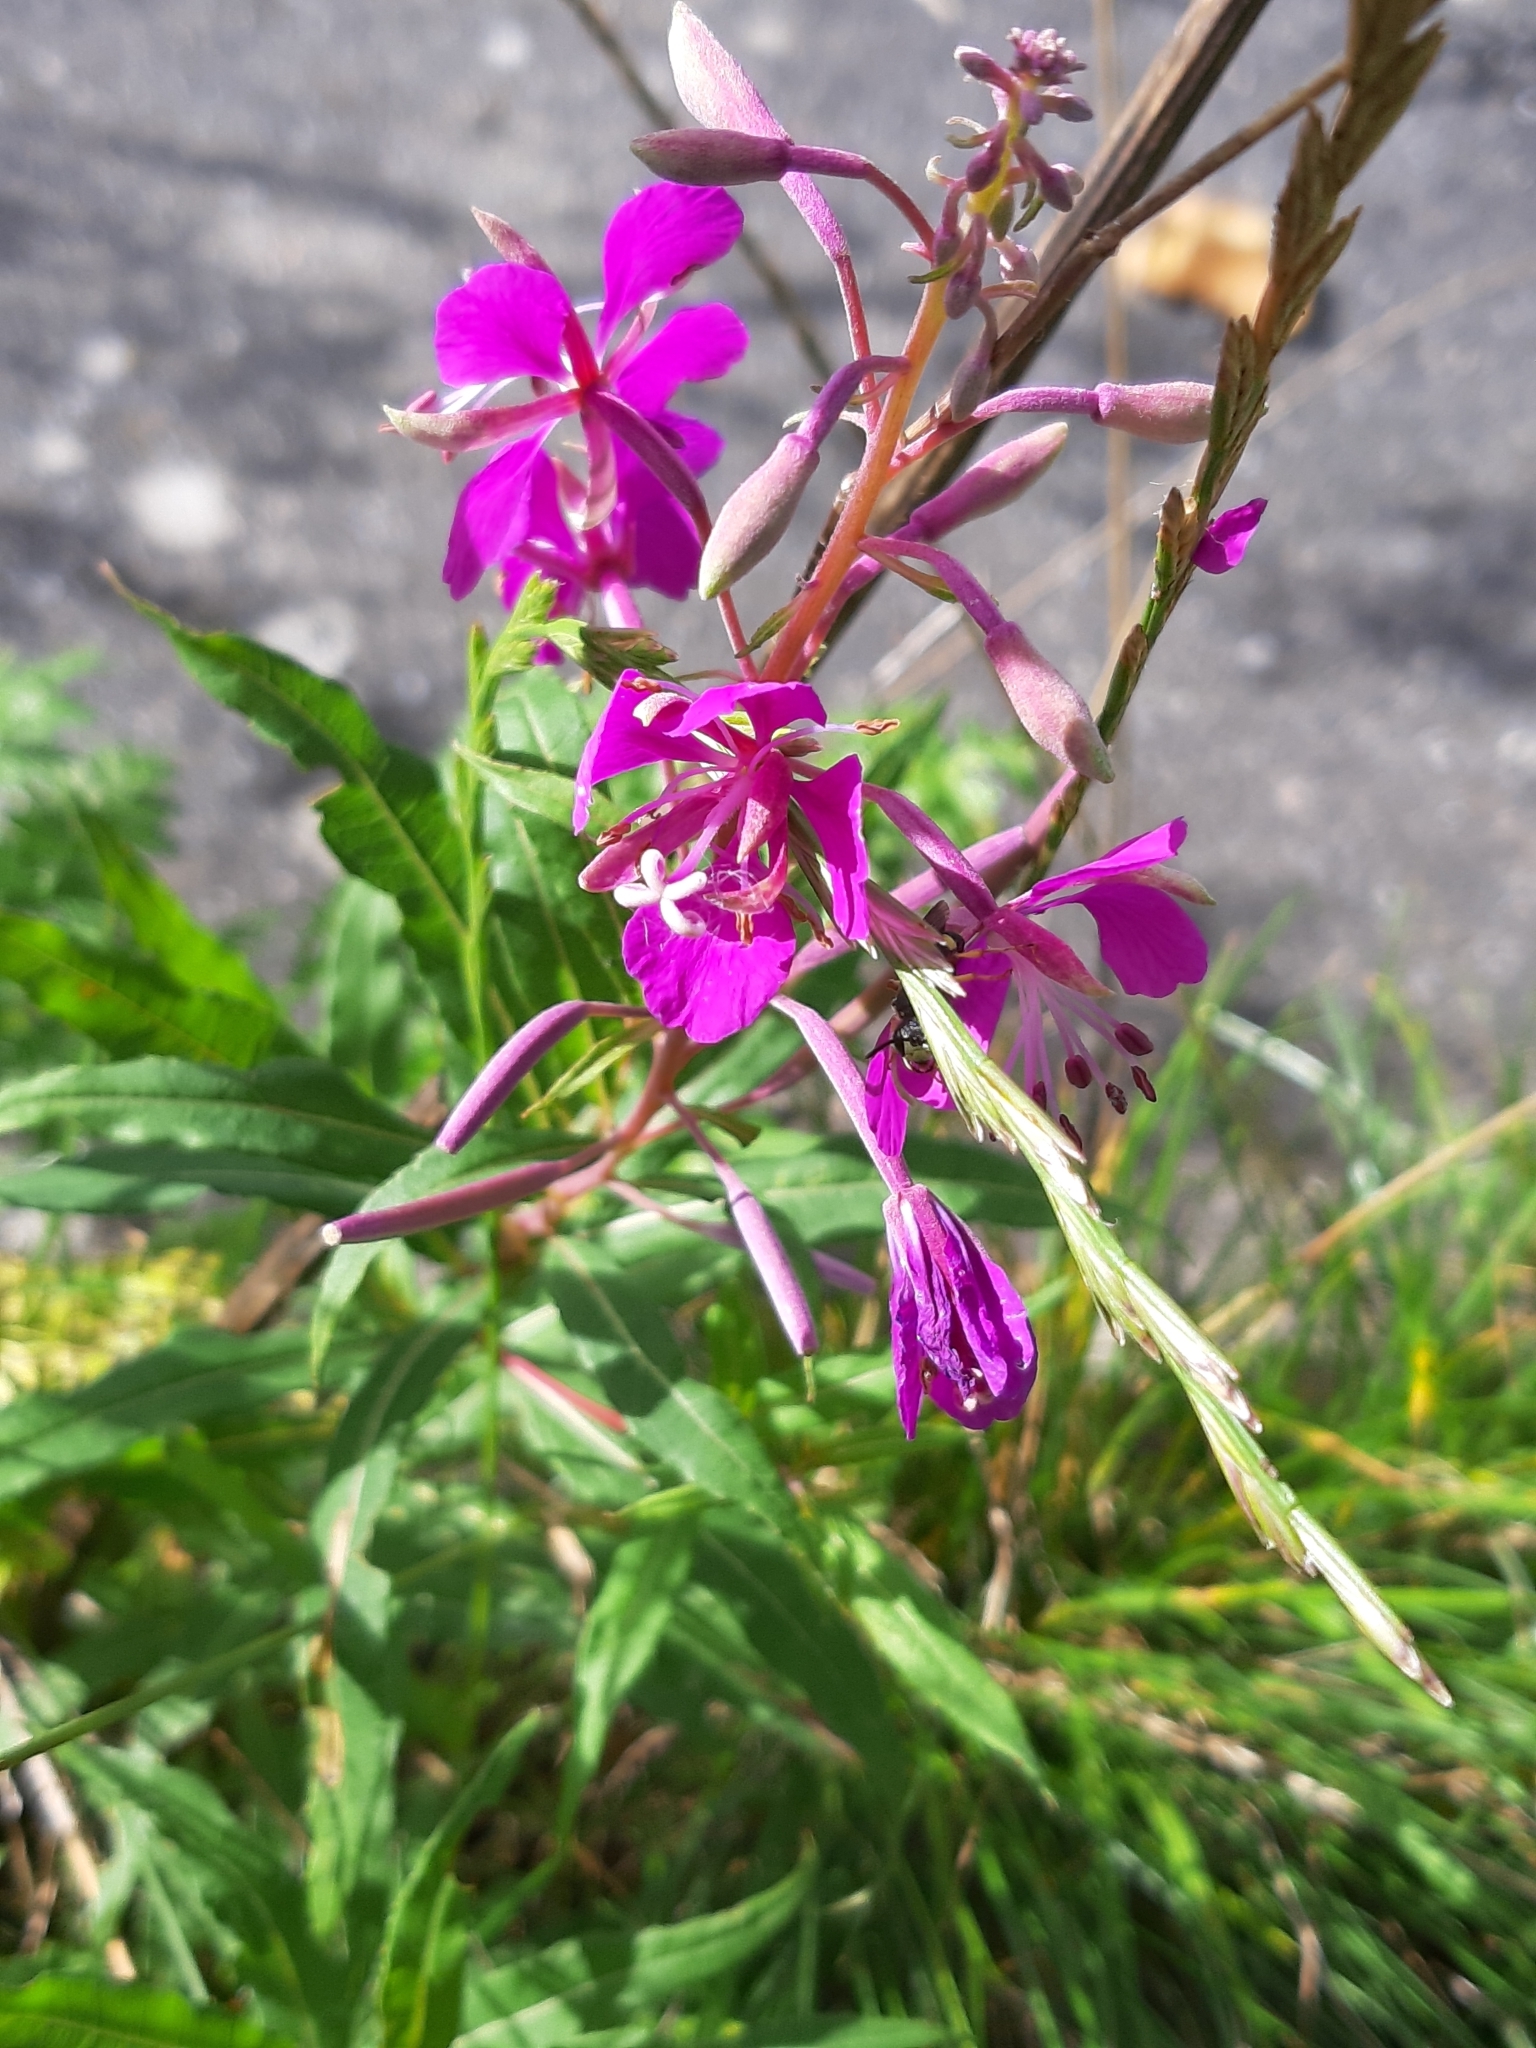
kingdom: Plantae
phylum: Tracheophyta
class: Magnoliopsida
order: Myrtales
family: Onagraceae
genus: Chamaenerion
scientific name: Chamaenerion angustifolium
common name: Fireweed
